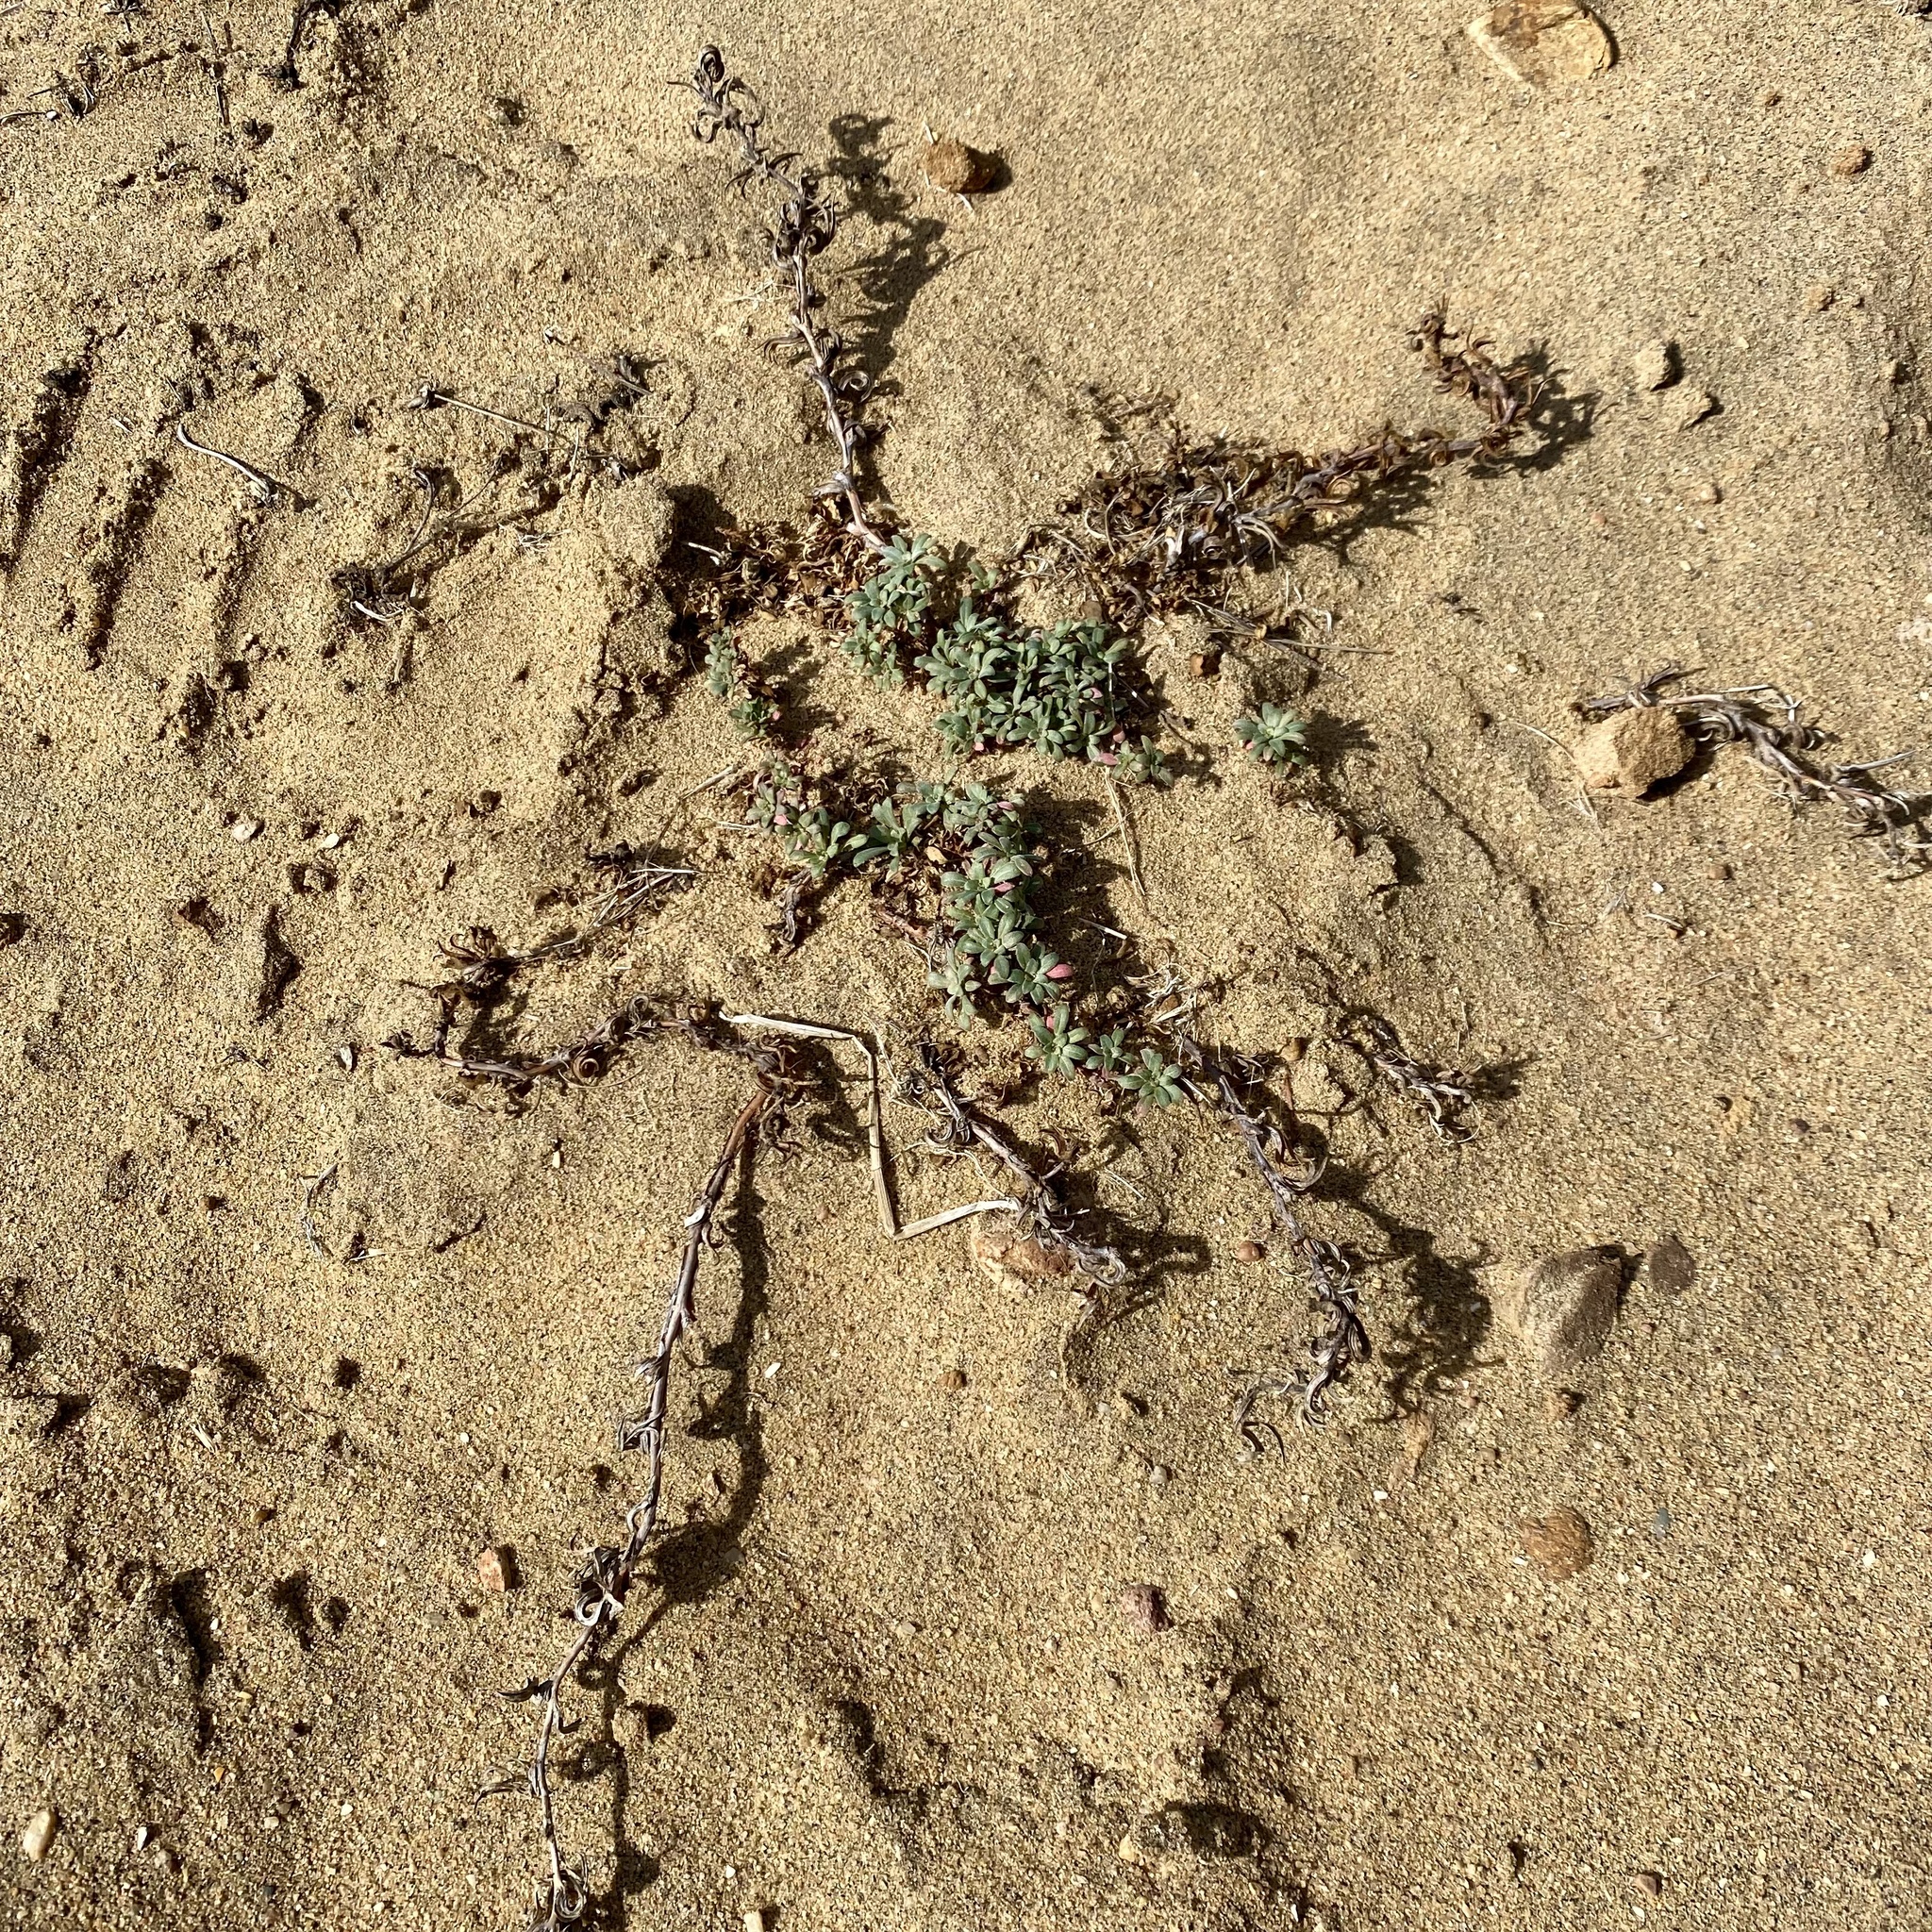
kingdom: Plantae
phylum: Tracheophyta
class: Magnoliopsida
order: Myrtales
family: Onagraceae
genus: Camissoniopsis
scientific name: Camissoniopsis cheiranthifolia
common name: Beach suncup
